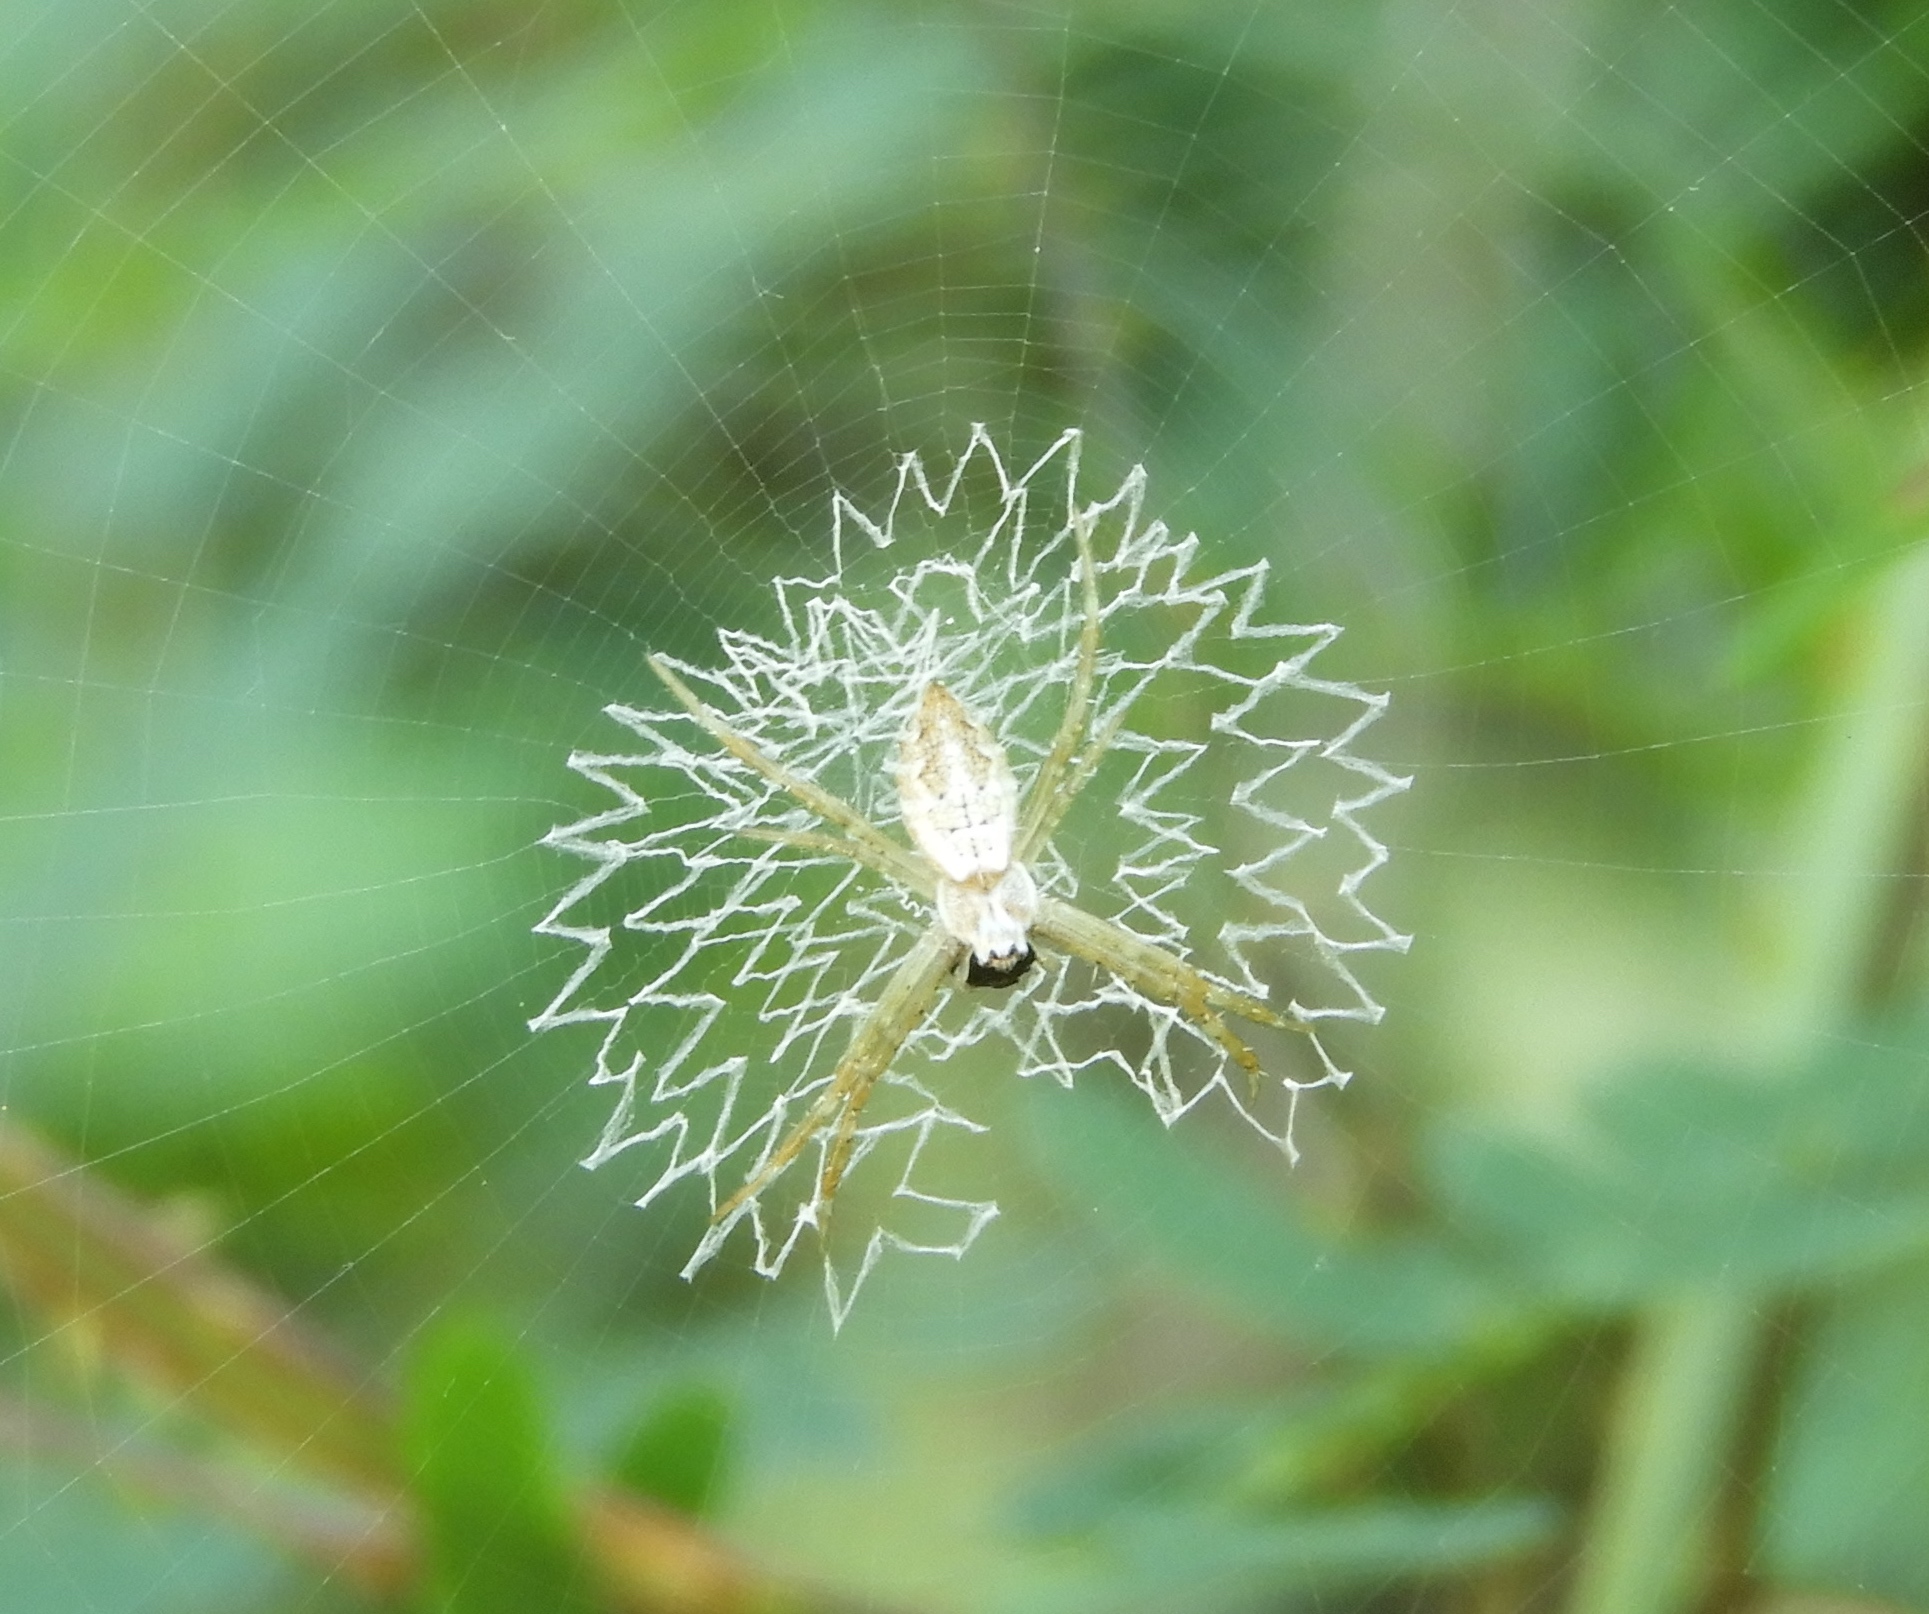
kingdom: Animalia
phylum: Arthropoda
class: Arachnida
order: Araneae
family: Araneidae
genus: Argiope
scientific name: Argiope
